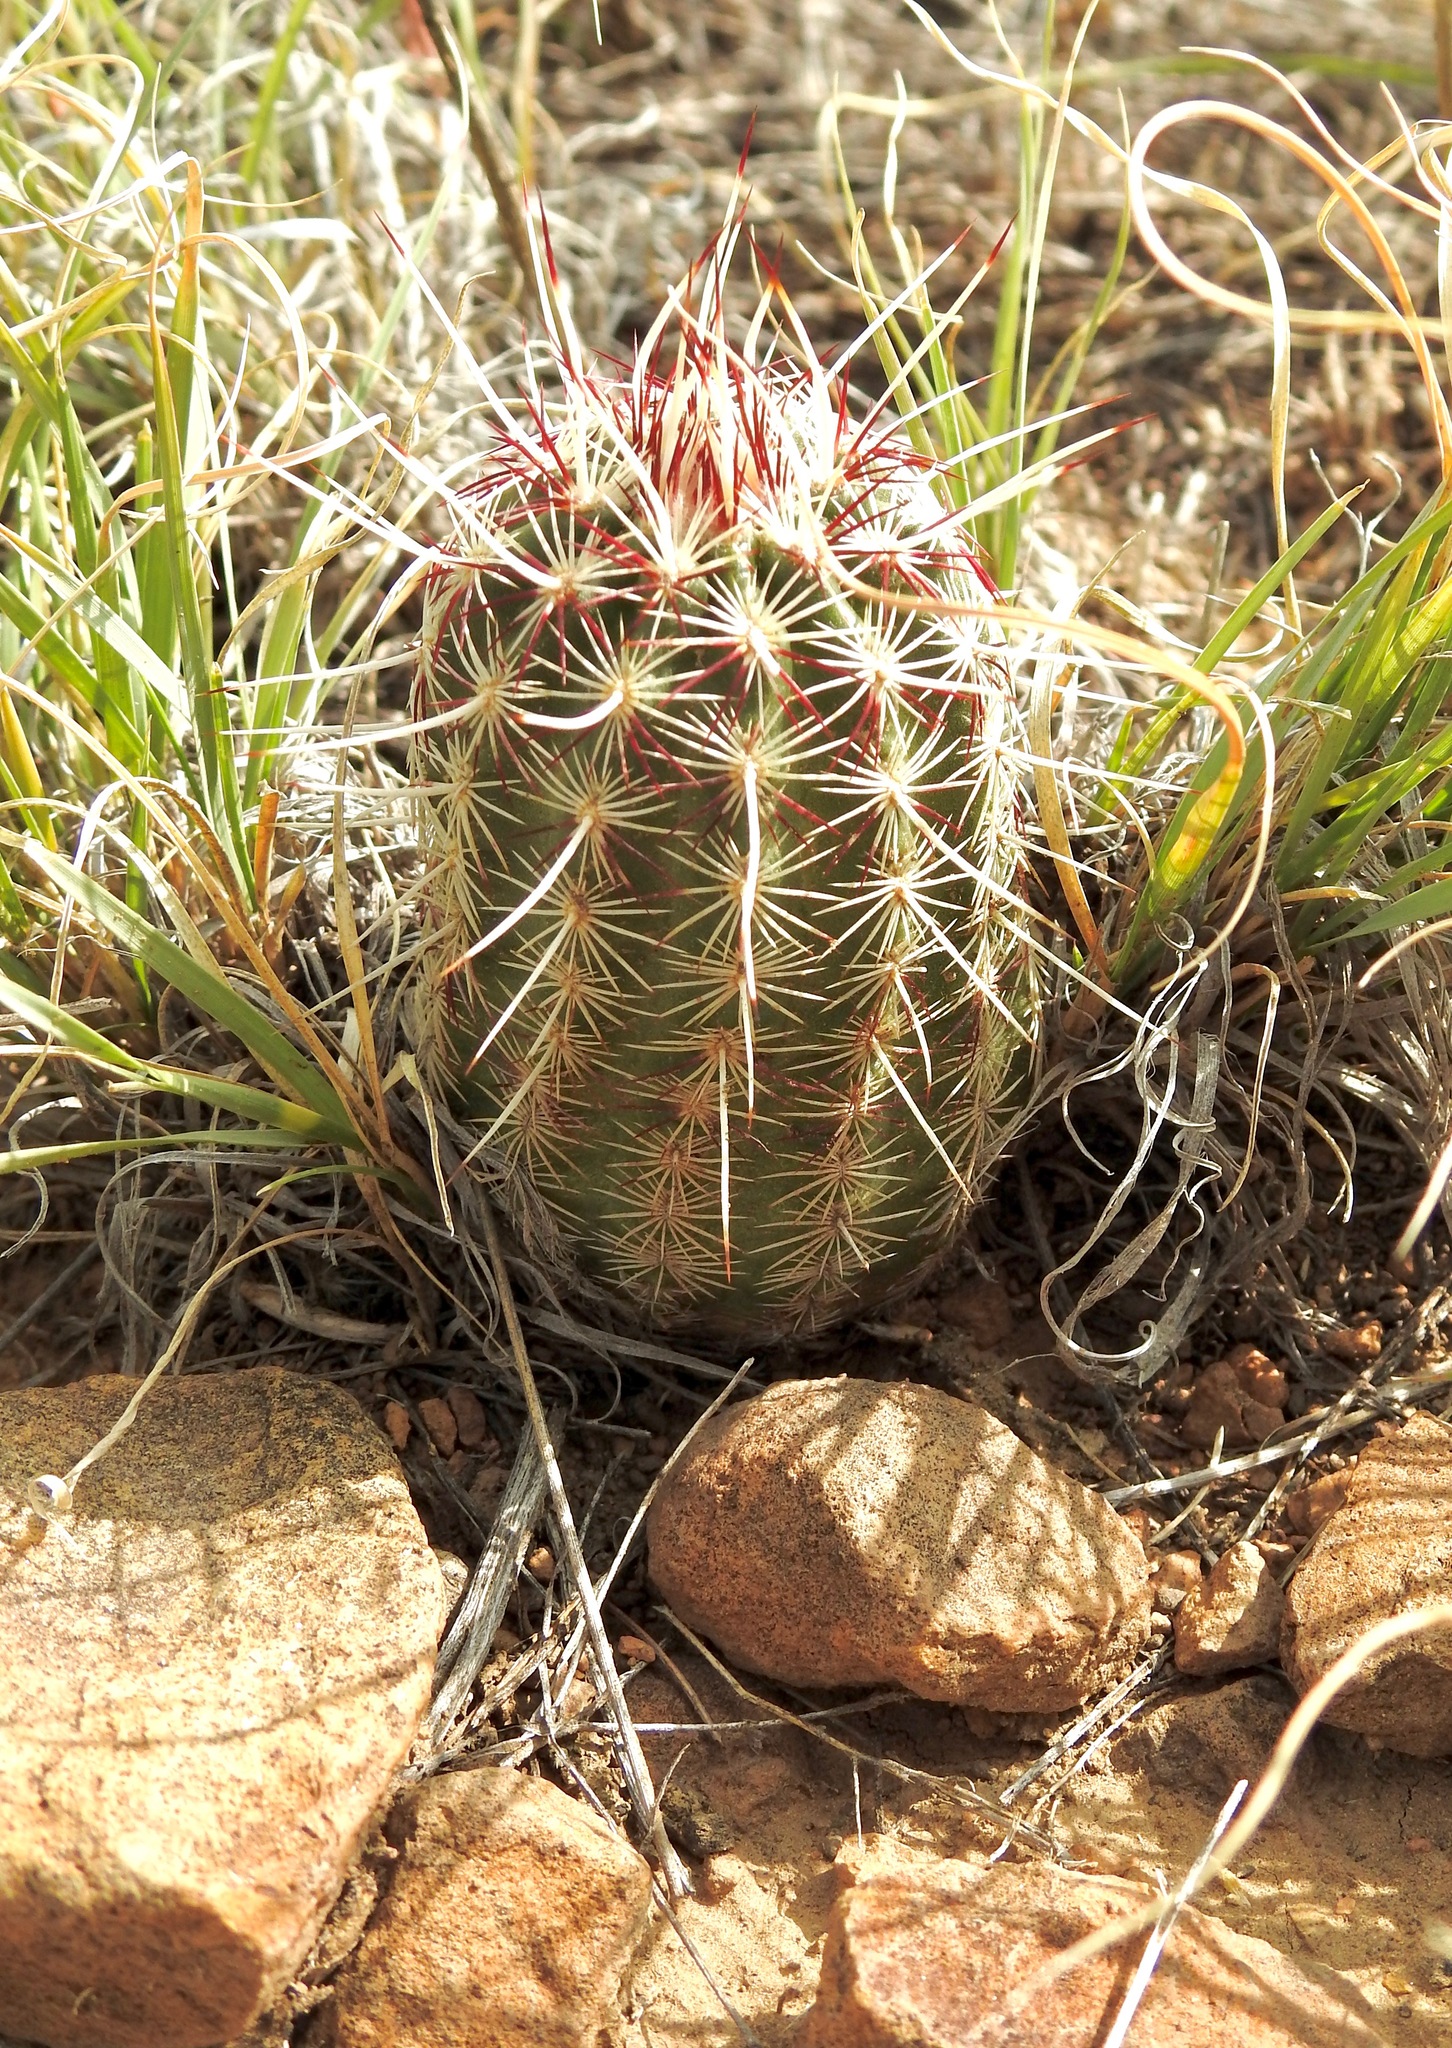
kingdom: Plantae
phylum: Tracheophyta
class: Magnoliopsida
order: Caryophyllales
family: Cactaceae
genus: Echinocereus
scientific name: Echinocereus viridiflorus
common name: Nylon hedgehog cactus
